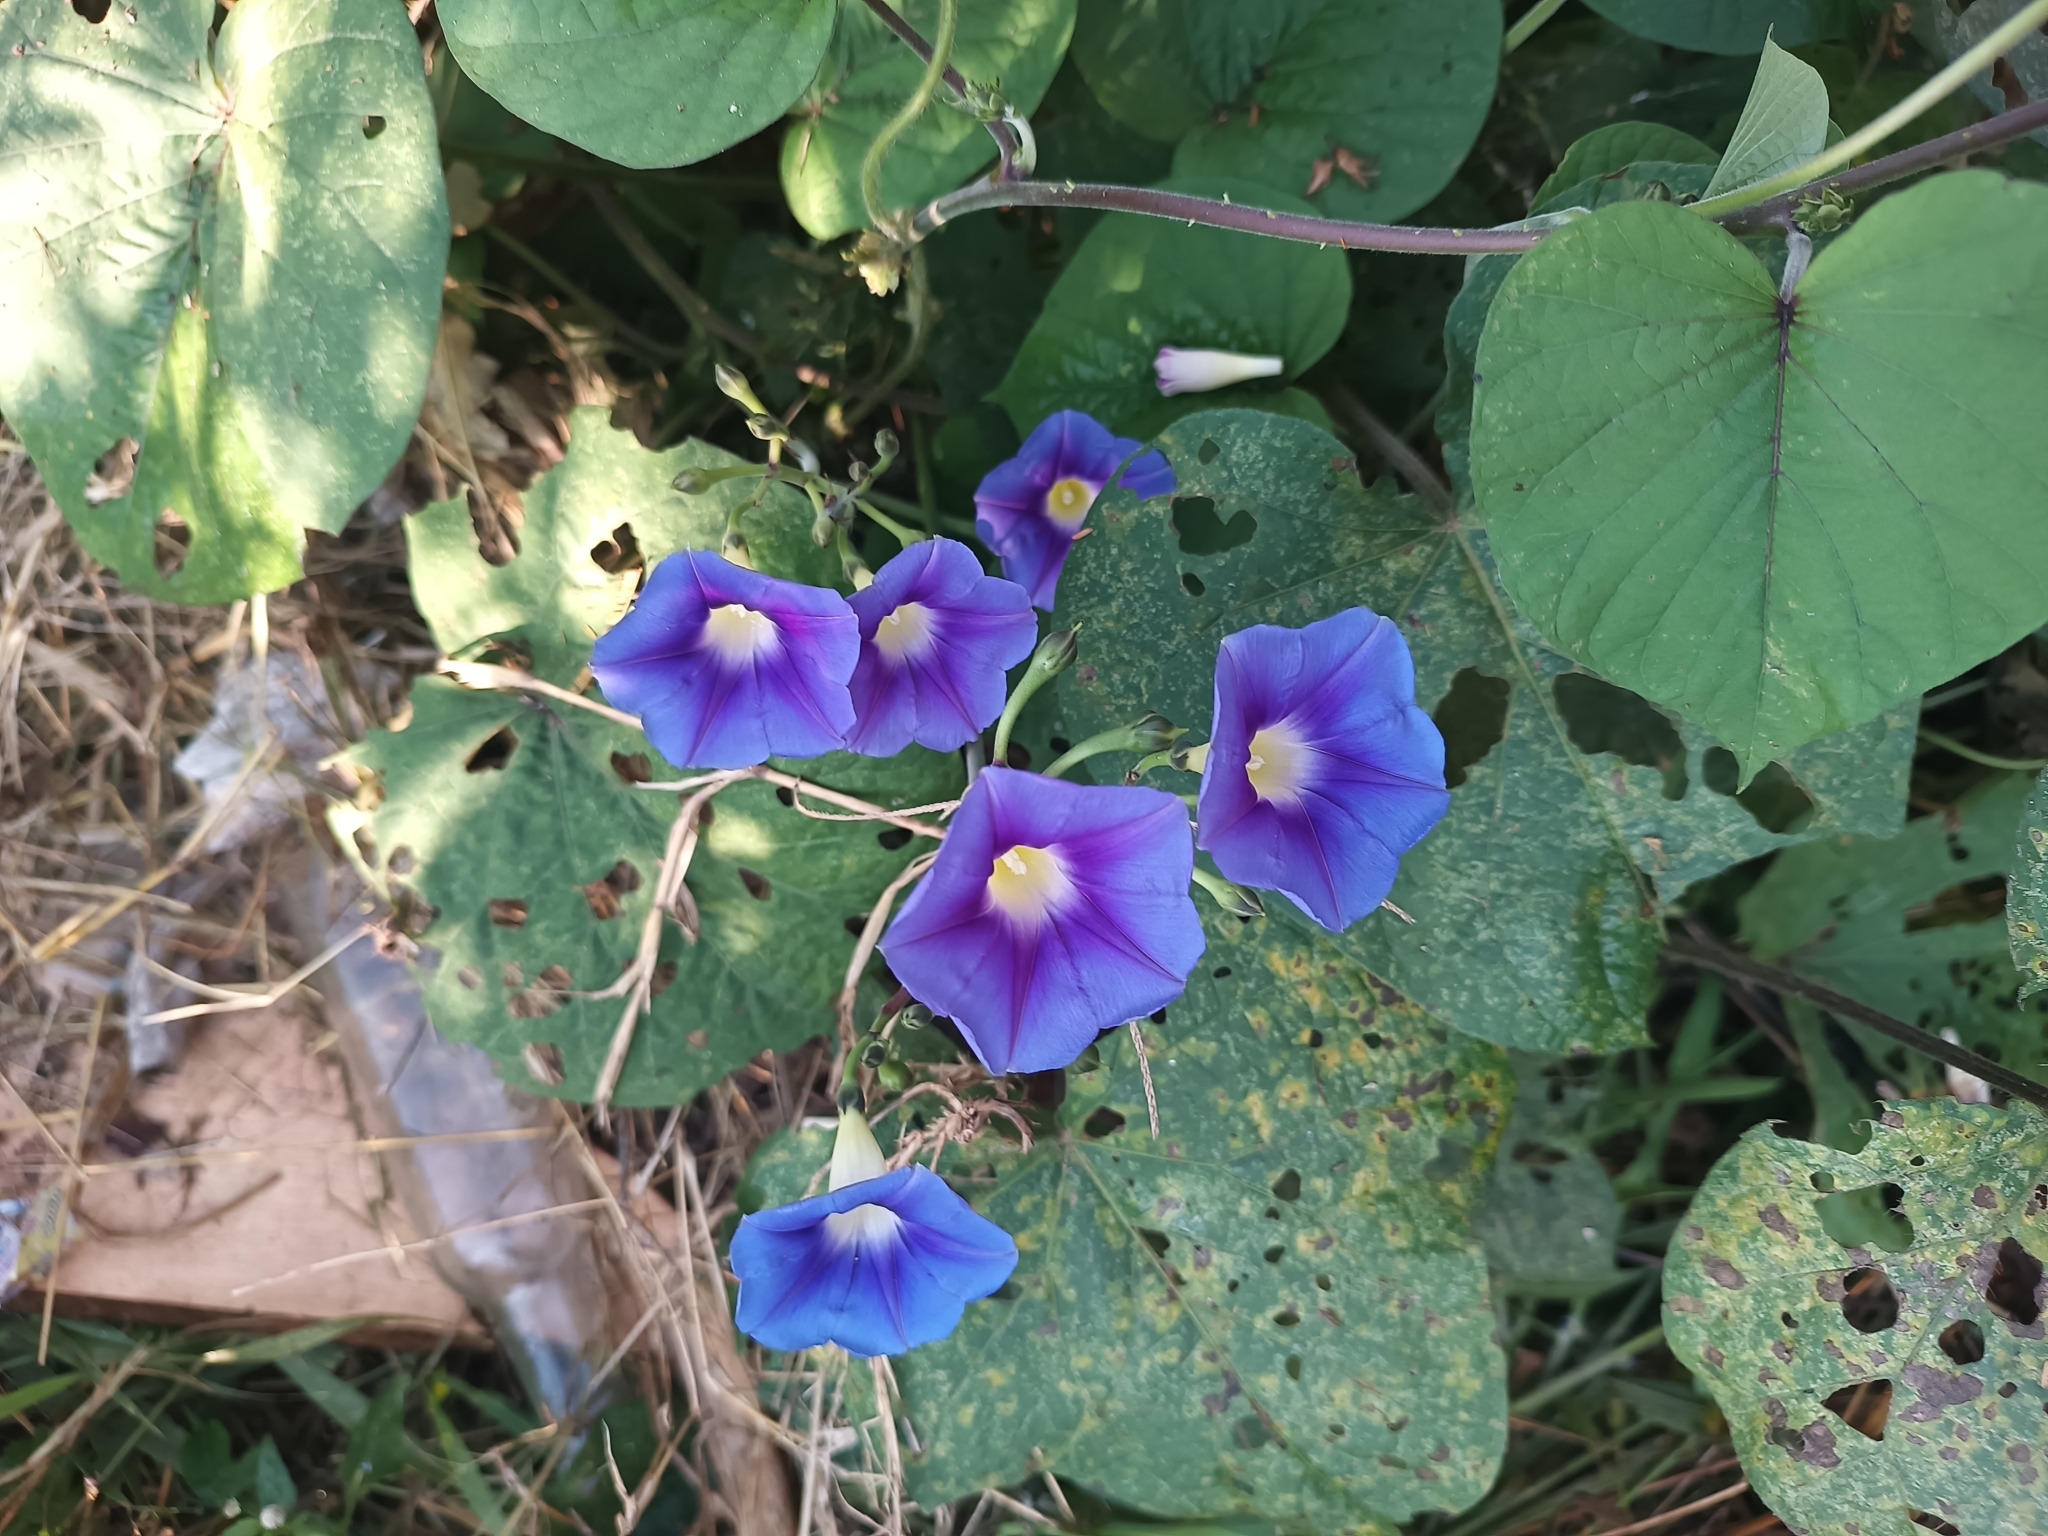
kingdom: Plantae
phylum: Tracheophyta
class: Magnoliopsida
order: Solanales
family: Convolvulaceae
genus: Ipomoea
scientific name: Ipomoea parasitica
